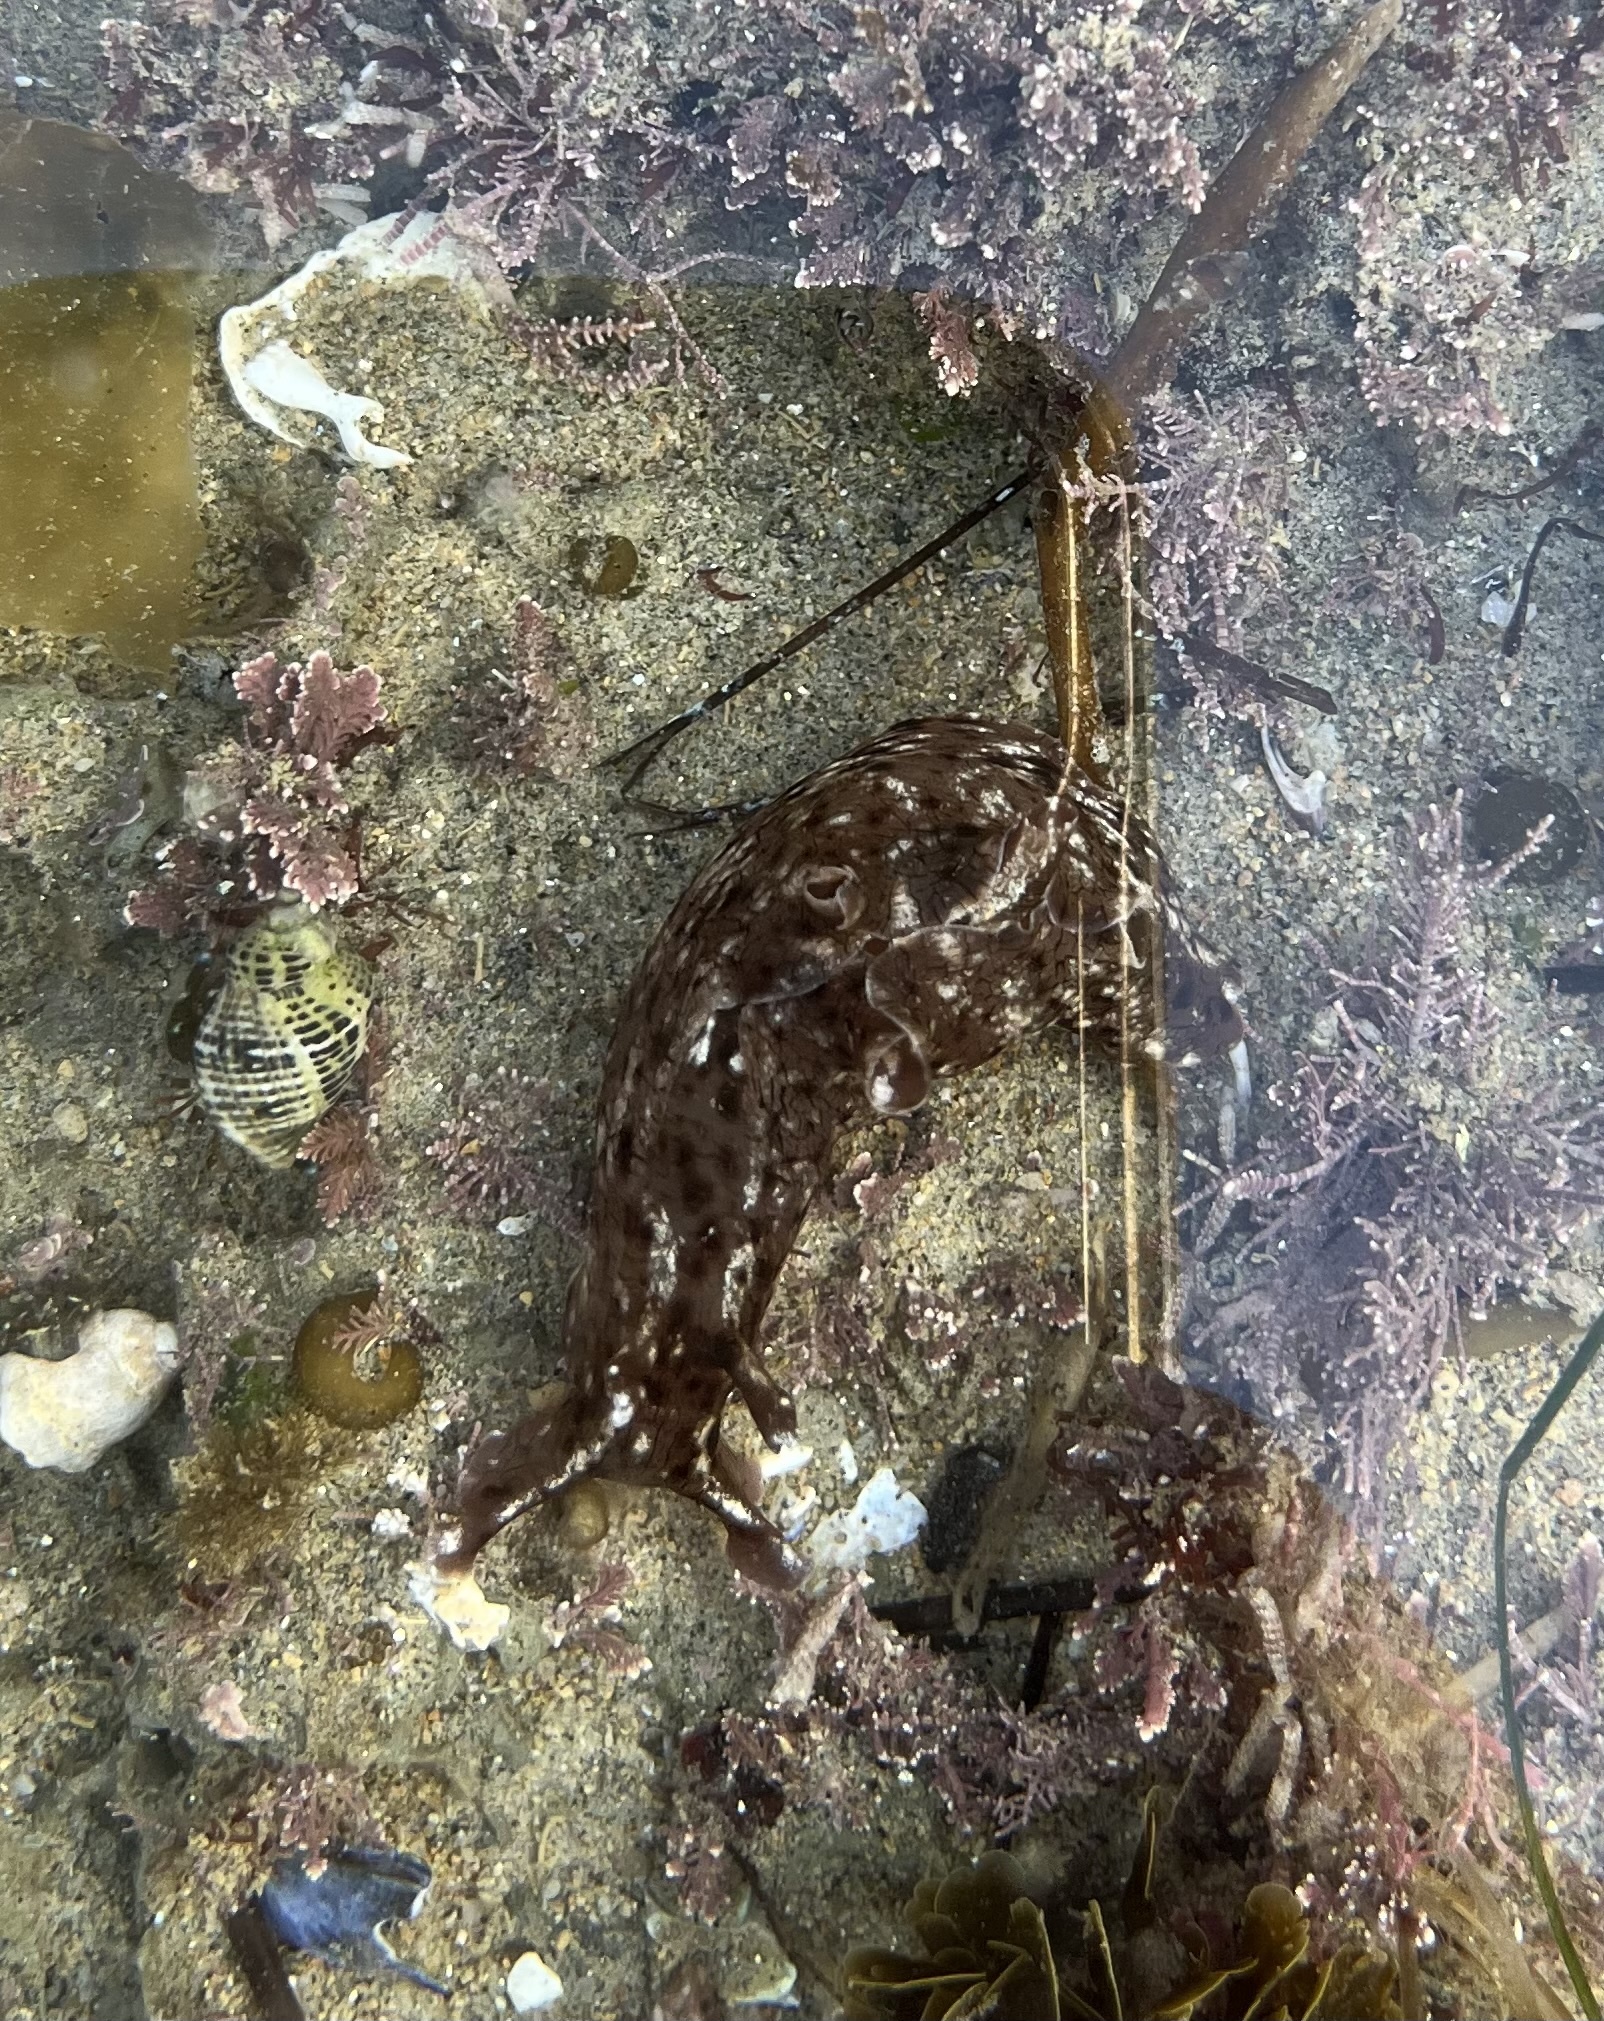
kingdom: Animalia
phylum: Mollusca
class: Gastropoda
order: Aplysiida
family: Aplysiidae
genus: Aplysia
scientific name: Aplysia californica
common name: California seahare
